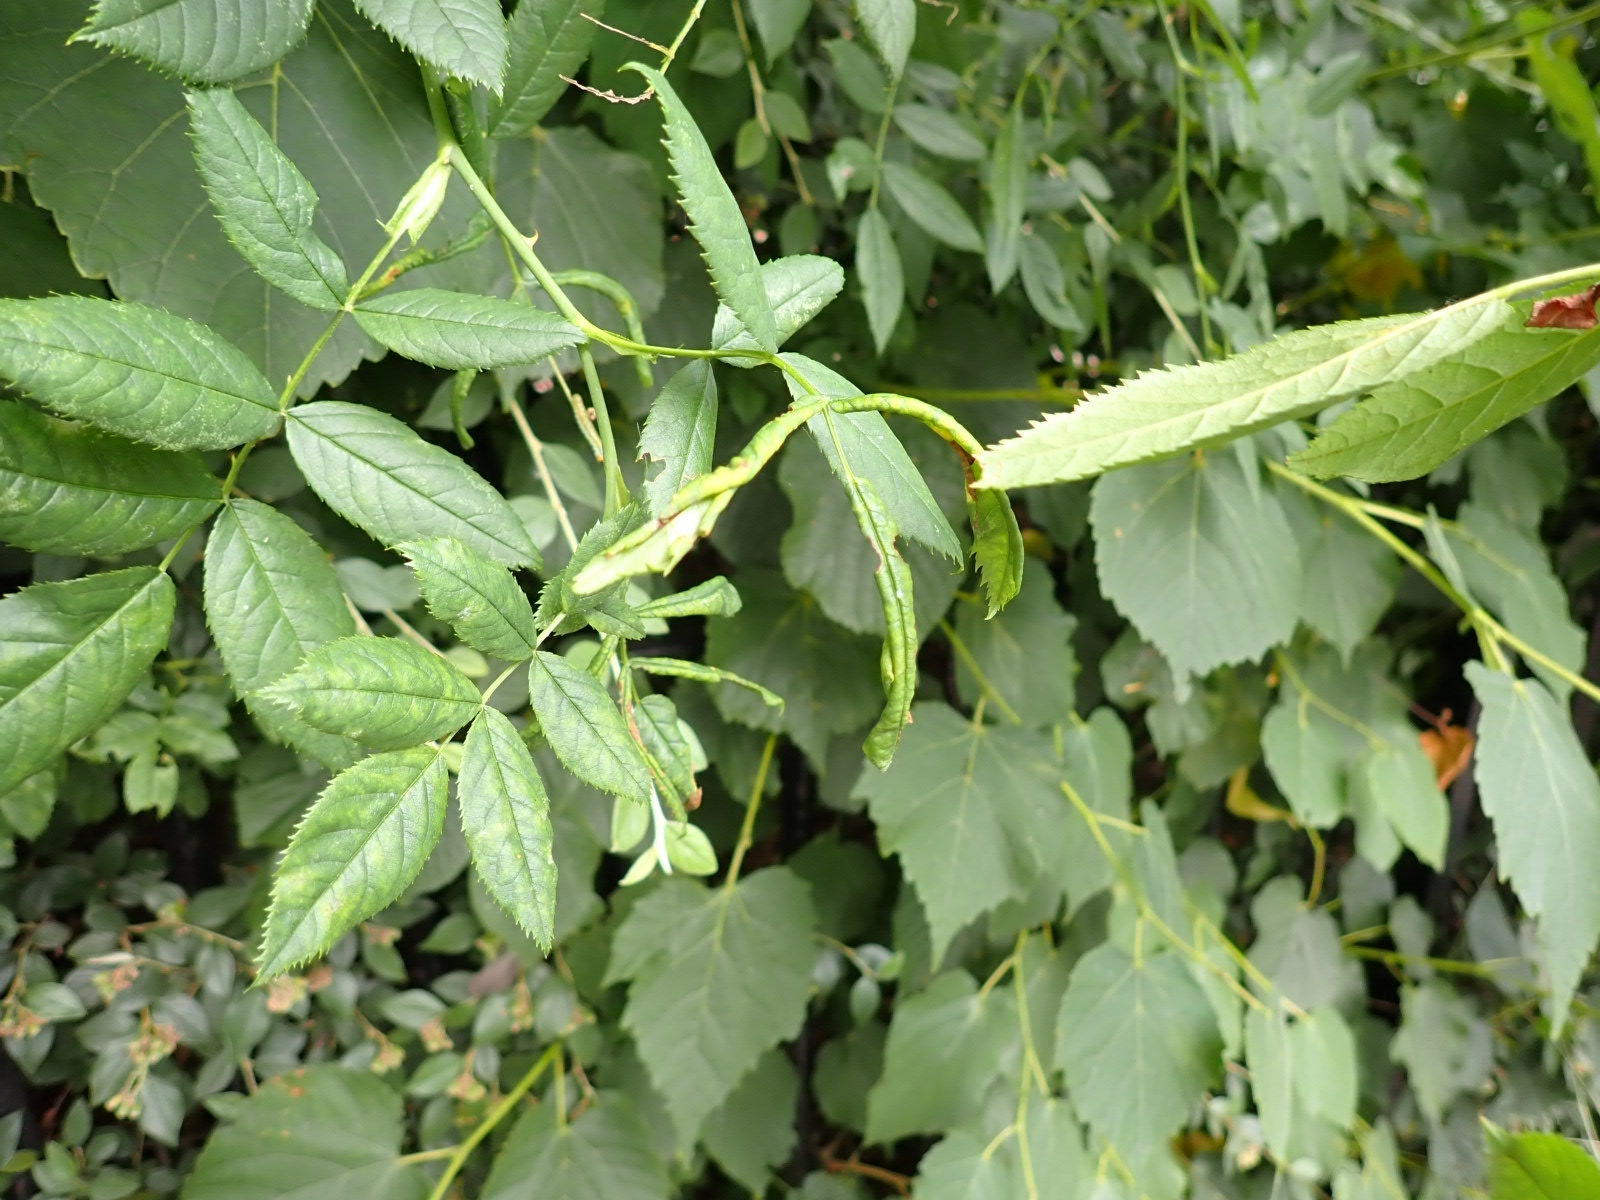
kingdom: Animalia
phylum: Arthropoda
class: Insecta
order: Hymenoptera
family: Tenthredinidae
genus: Blennocampa
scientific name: Blennocampa phyllocolpa
